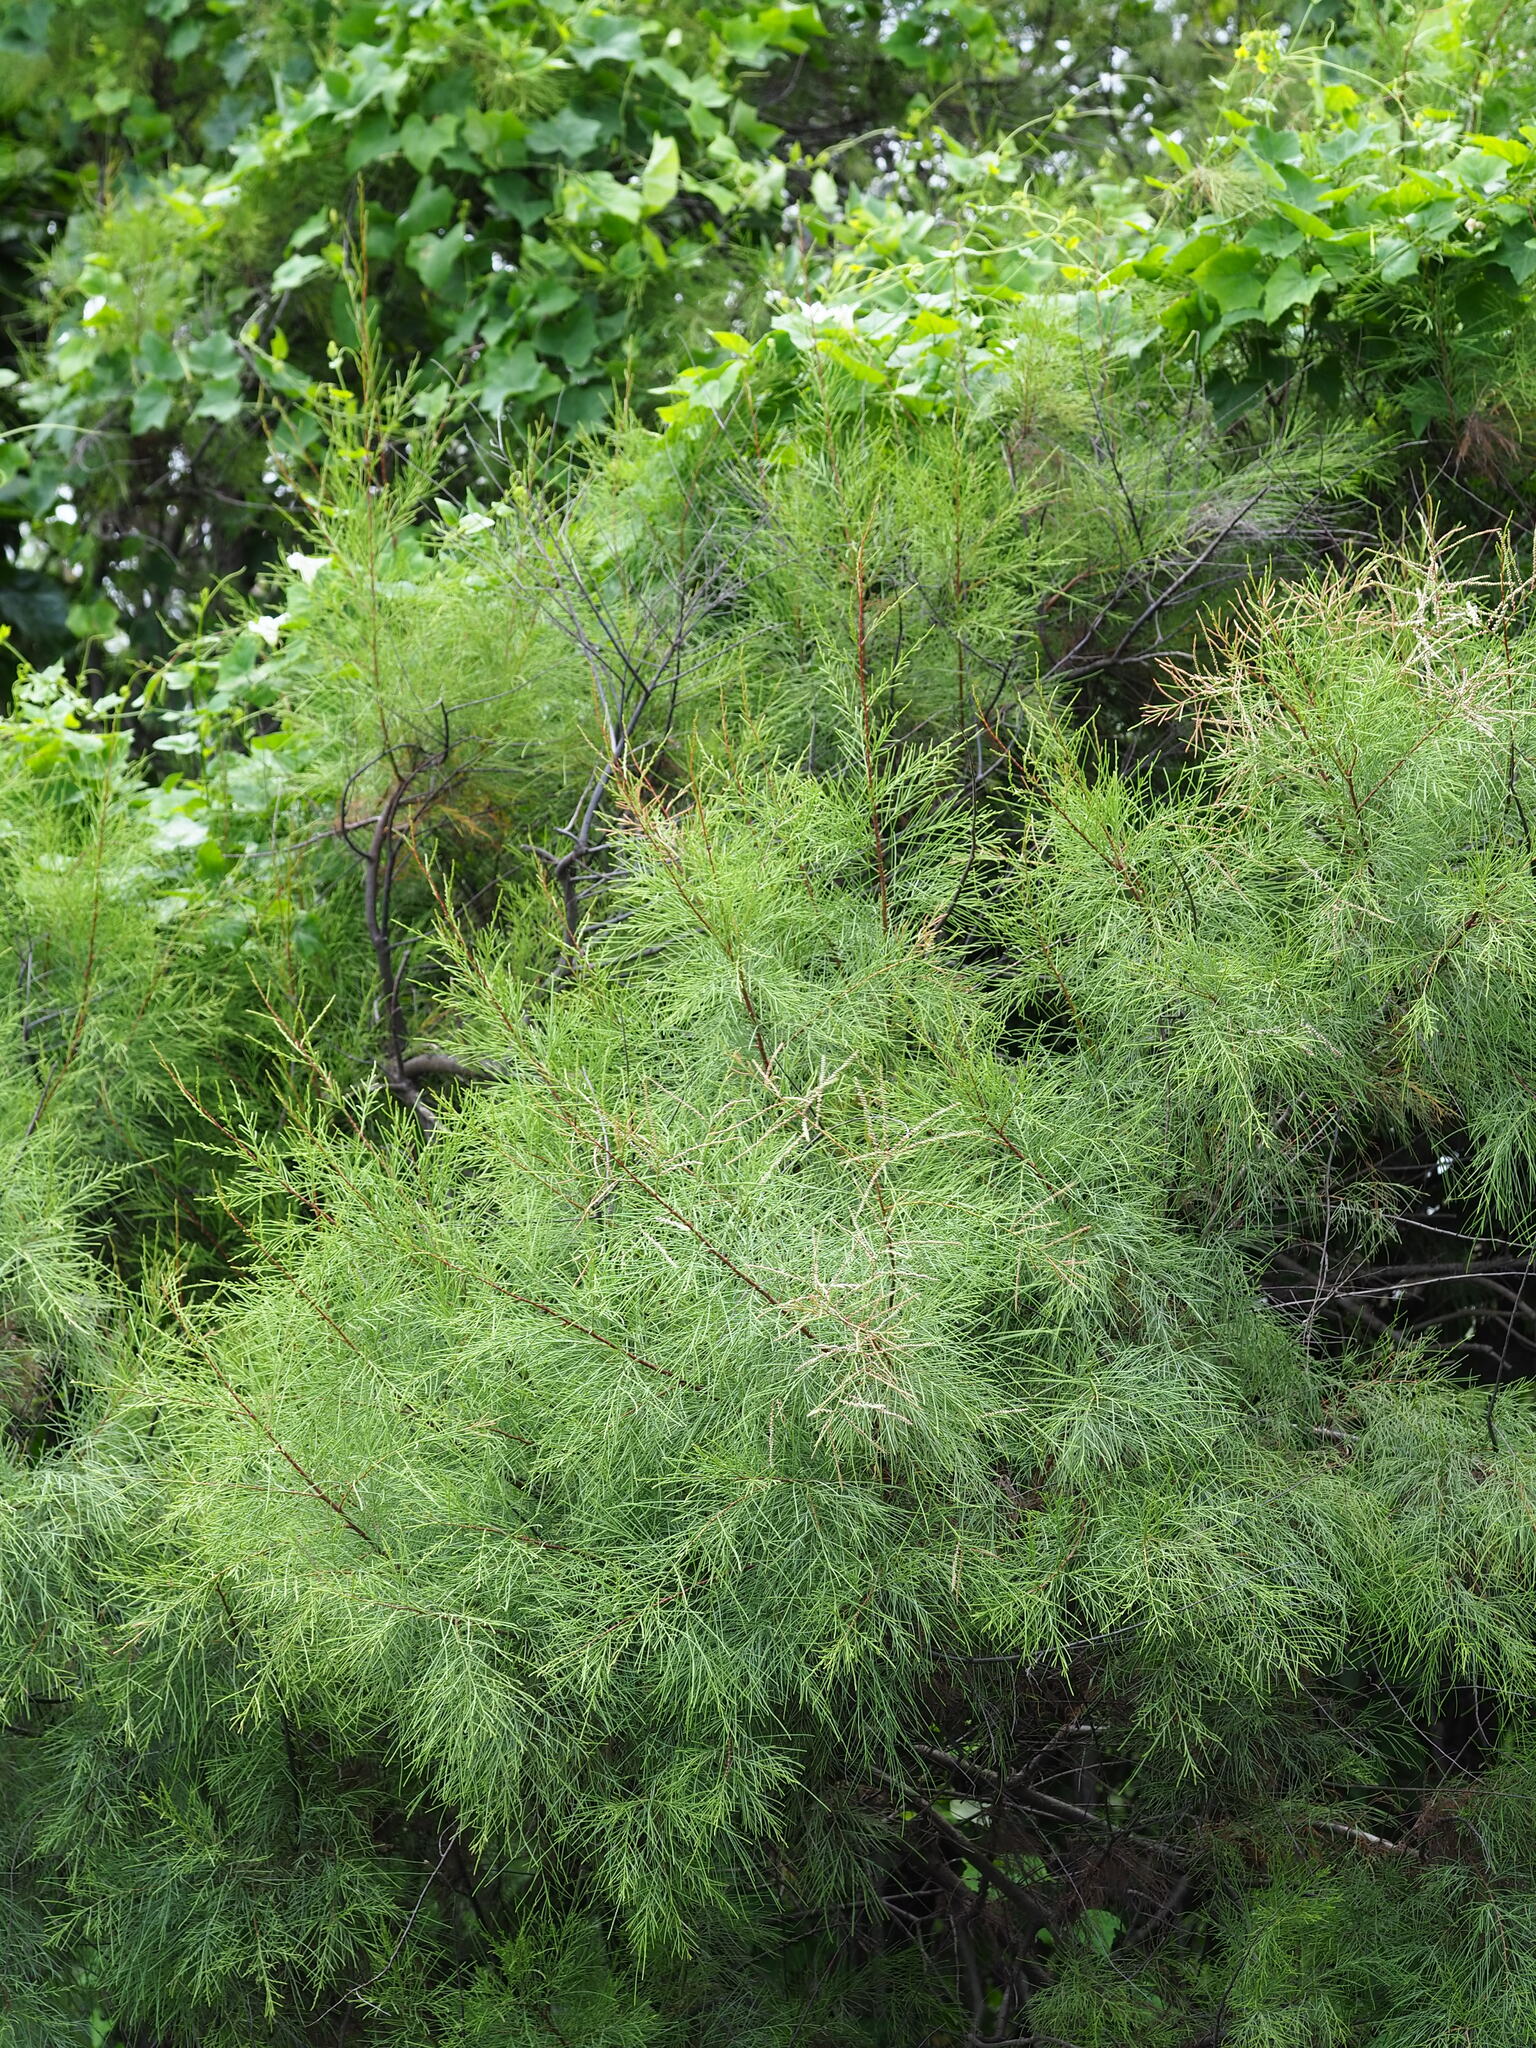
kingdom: Plantae
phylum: Tracheophyta
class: Magnoliopsida
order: Caryophyllales
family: Tamaricaceae
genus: Tamarix
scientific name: Tamarix aphylla
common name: Athel tamarisk
